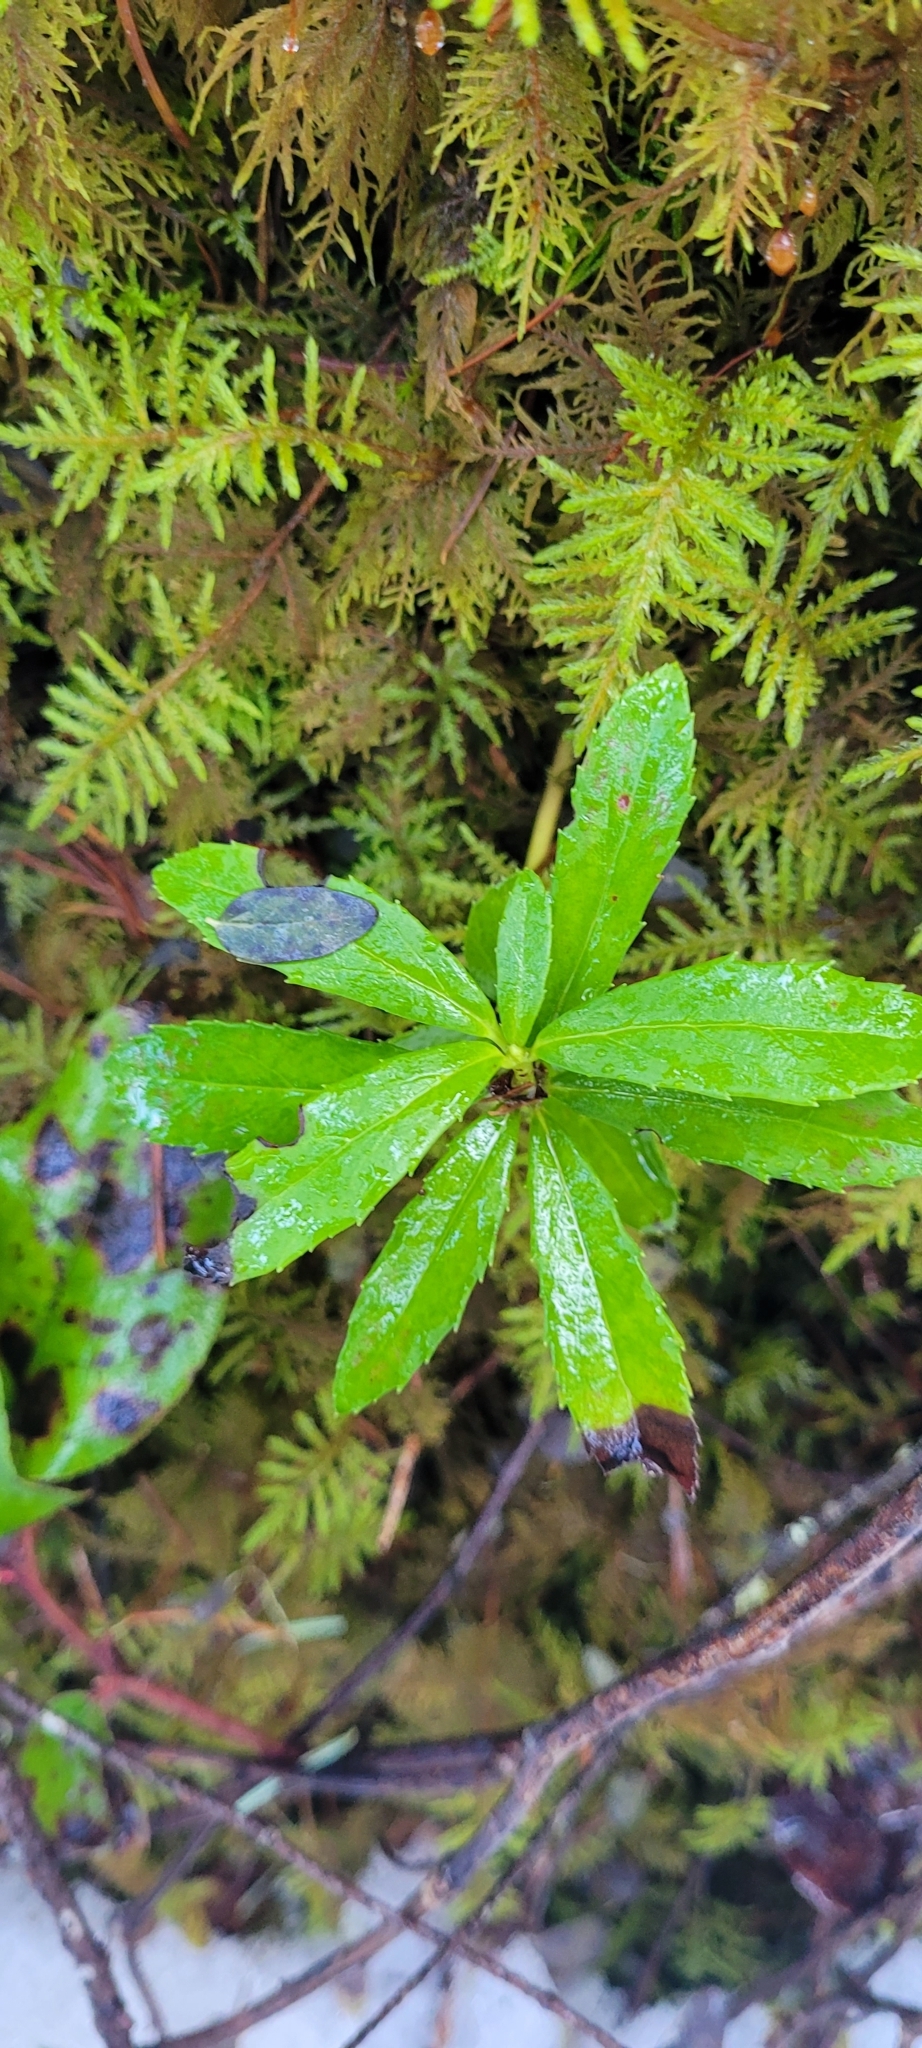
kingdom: Plantae
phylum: Tracheophyta
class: Magnoliopsida
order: Ericales
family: Ericaceae
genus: Chimaphila
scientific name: Chimaphila umbellata
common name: Pipsissewa
